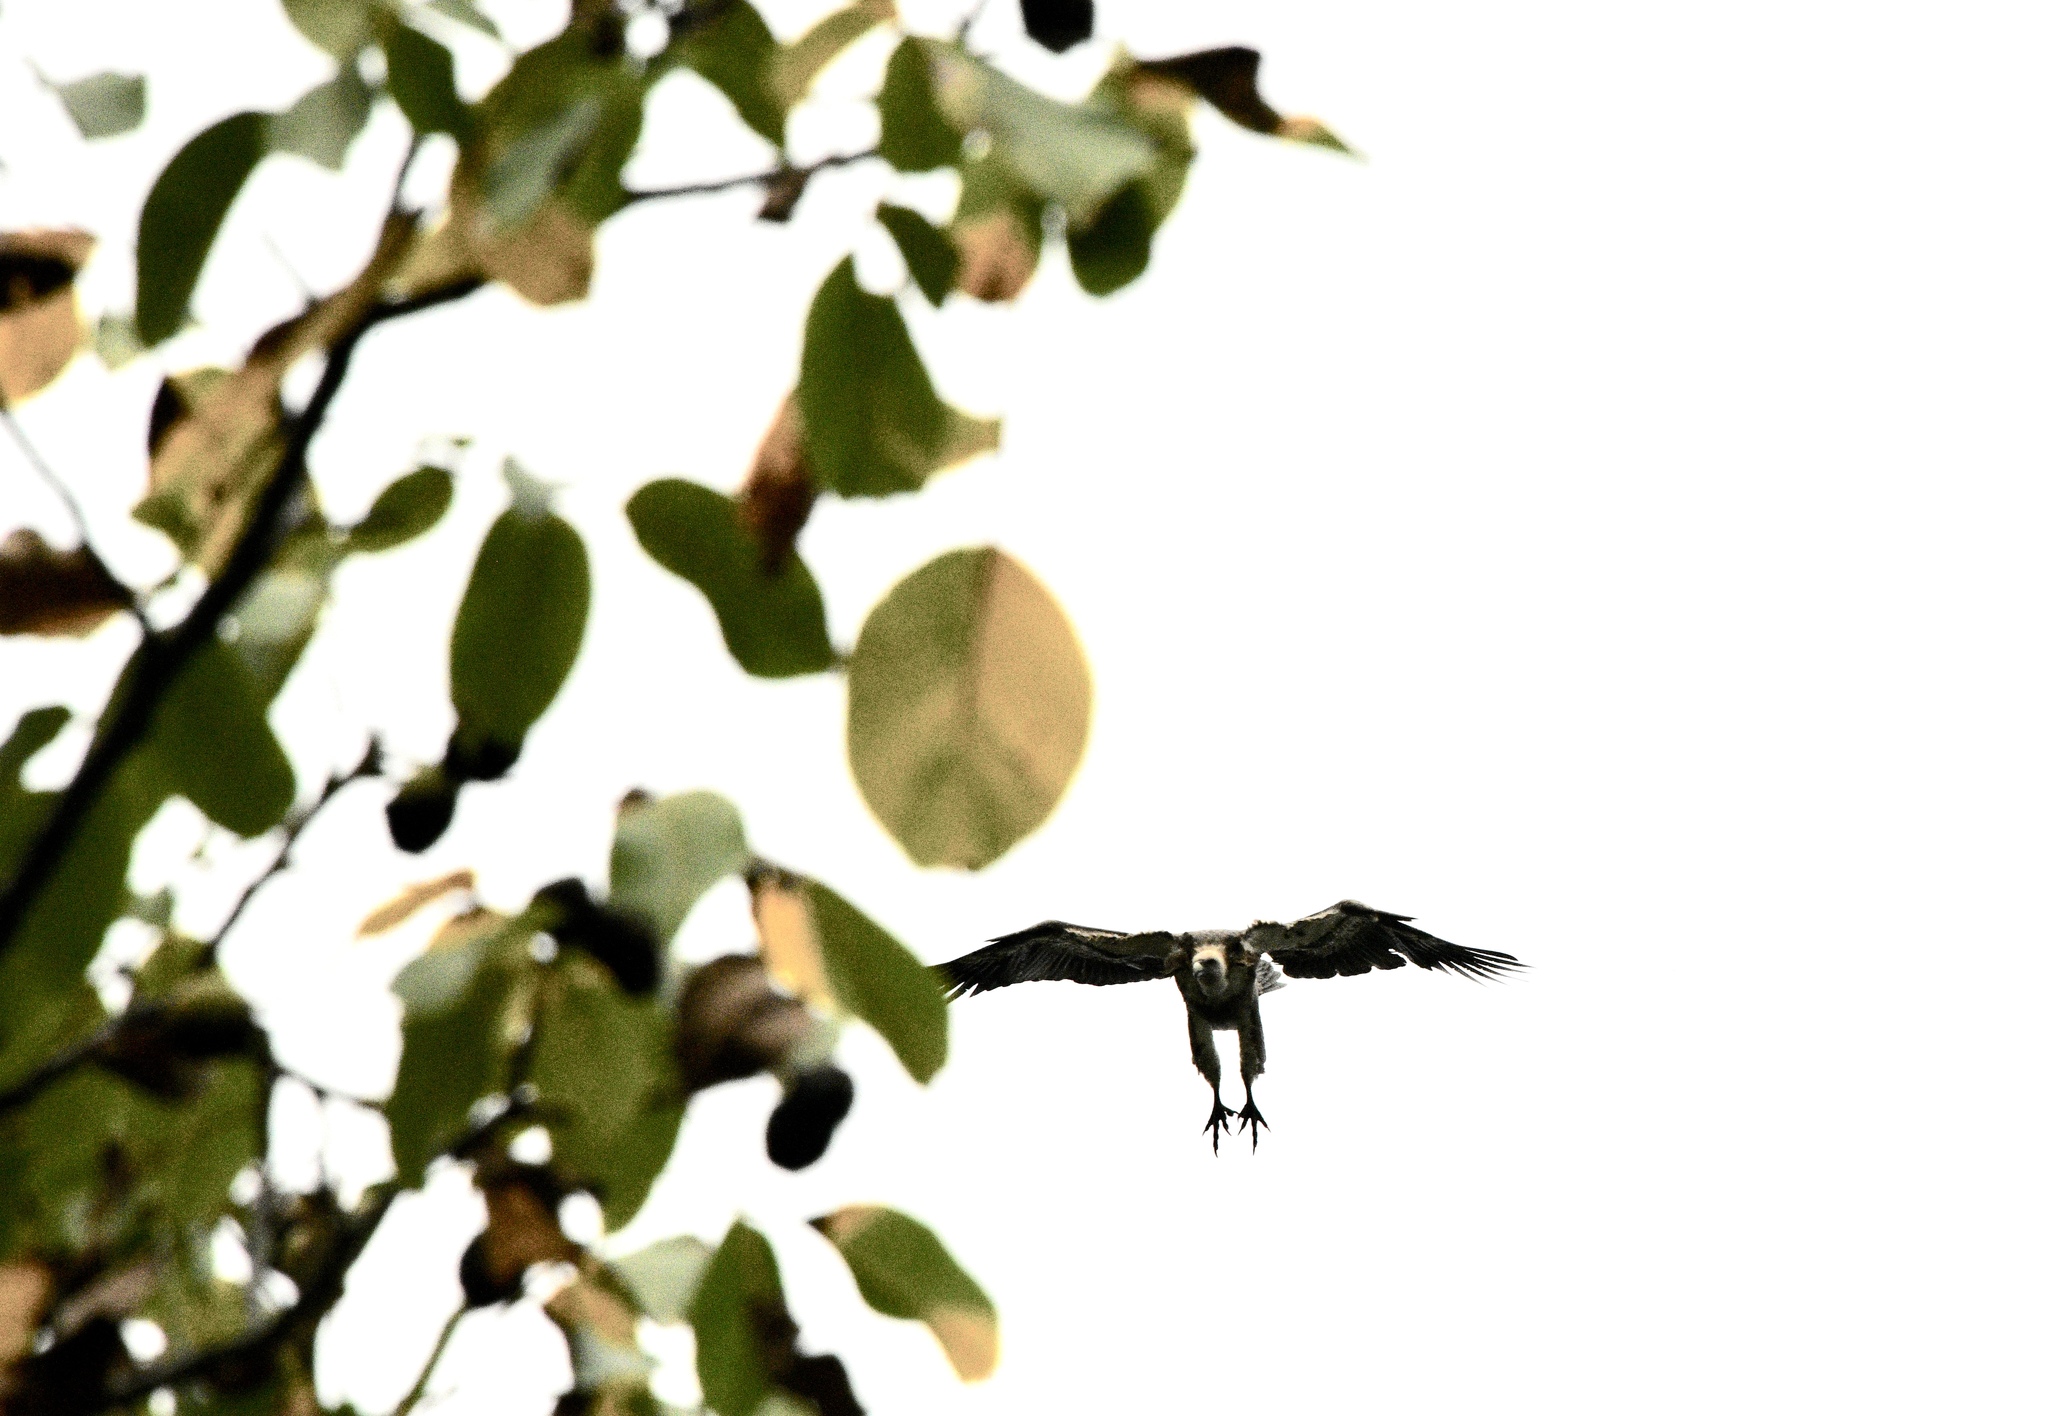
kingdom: Animalia
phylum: Chordata
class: Aves
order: Accipitriformes
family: Accipitridae
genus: Gyps
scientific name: Gyps fulvus
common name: Griffon vulture
